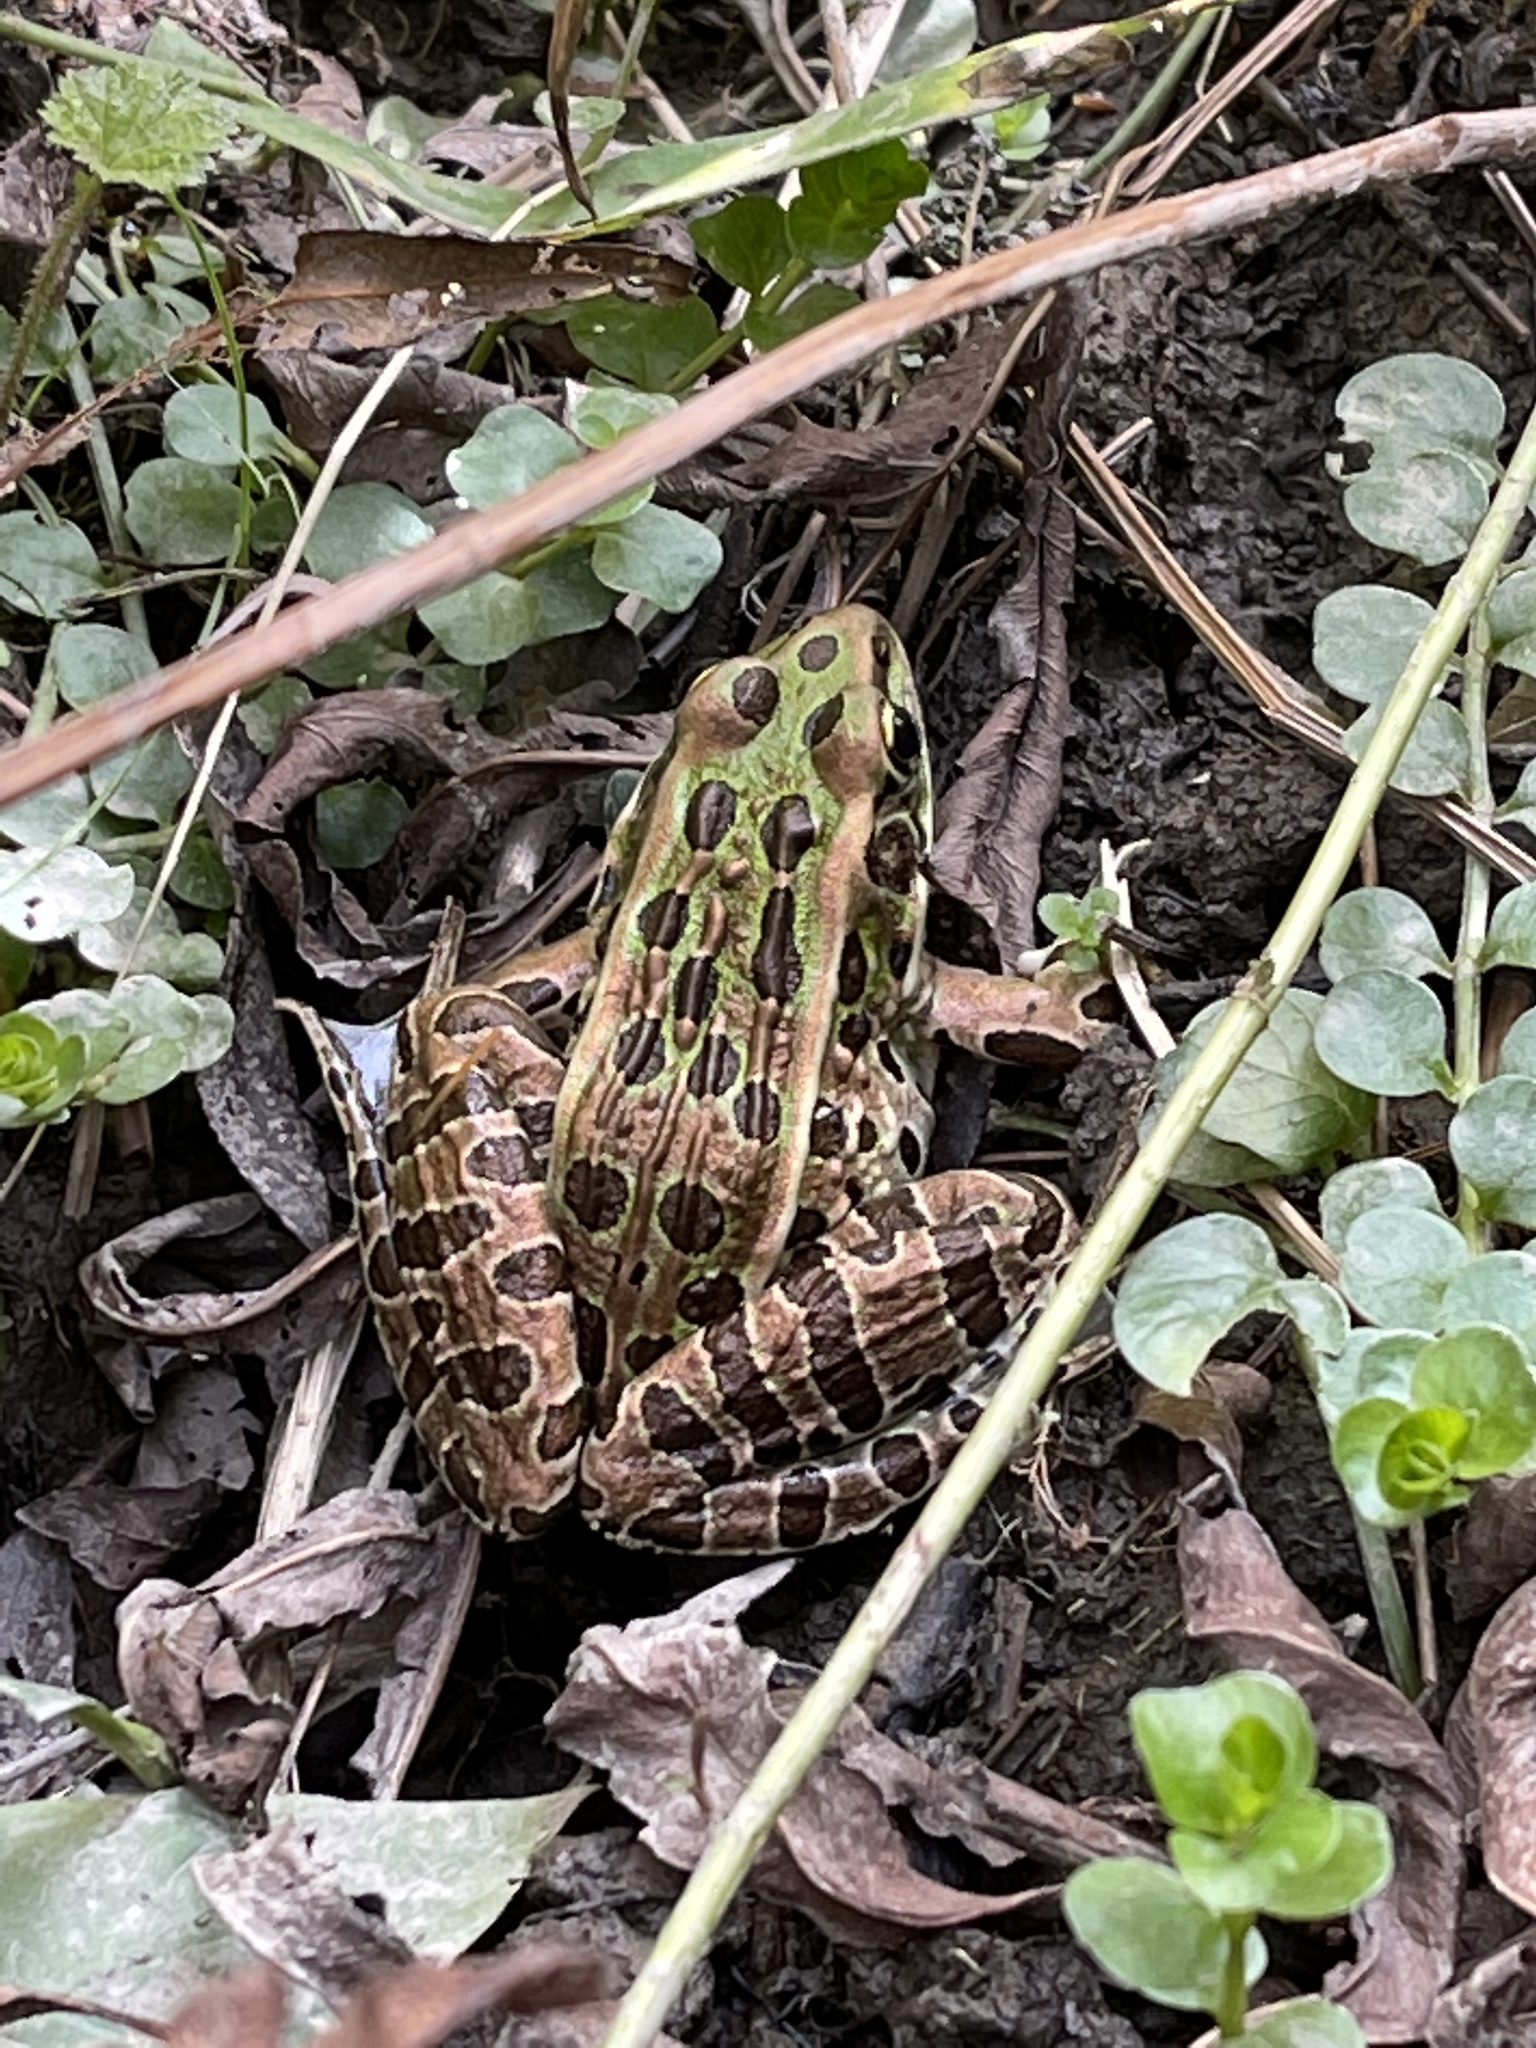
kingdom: Animalia
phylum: Chordata
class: Amphibia
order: Anura
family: Ranidae
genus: Lithobates
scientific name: Lithobates pipiens
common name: Northern leopard frog
